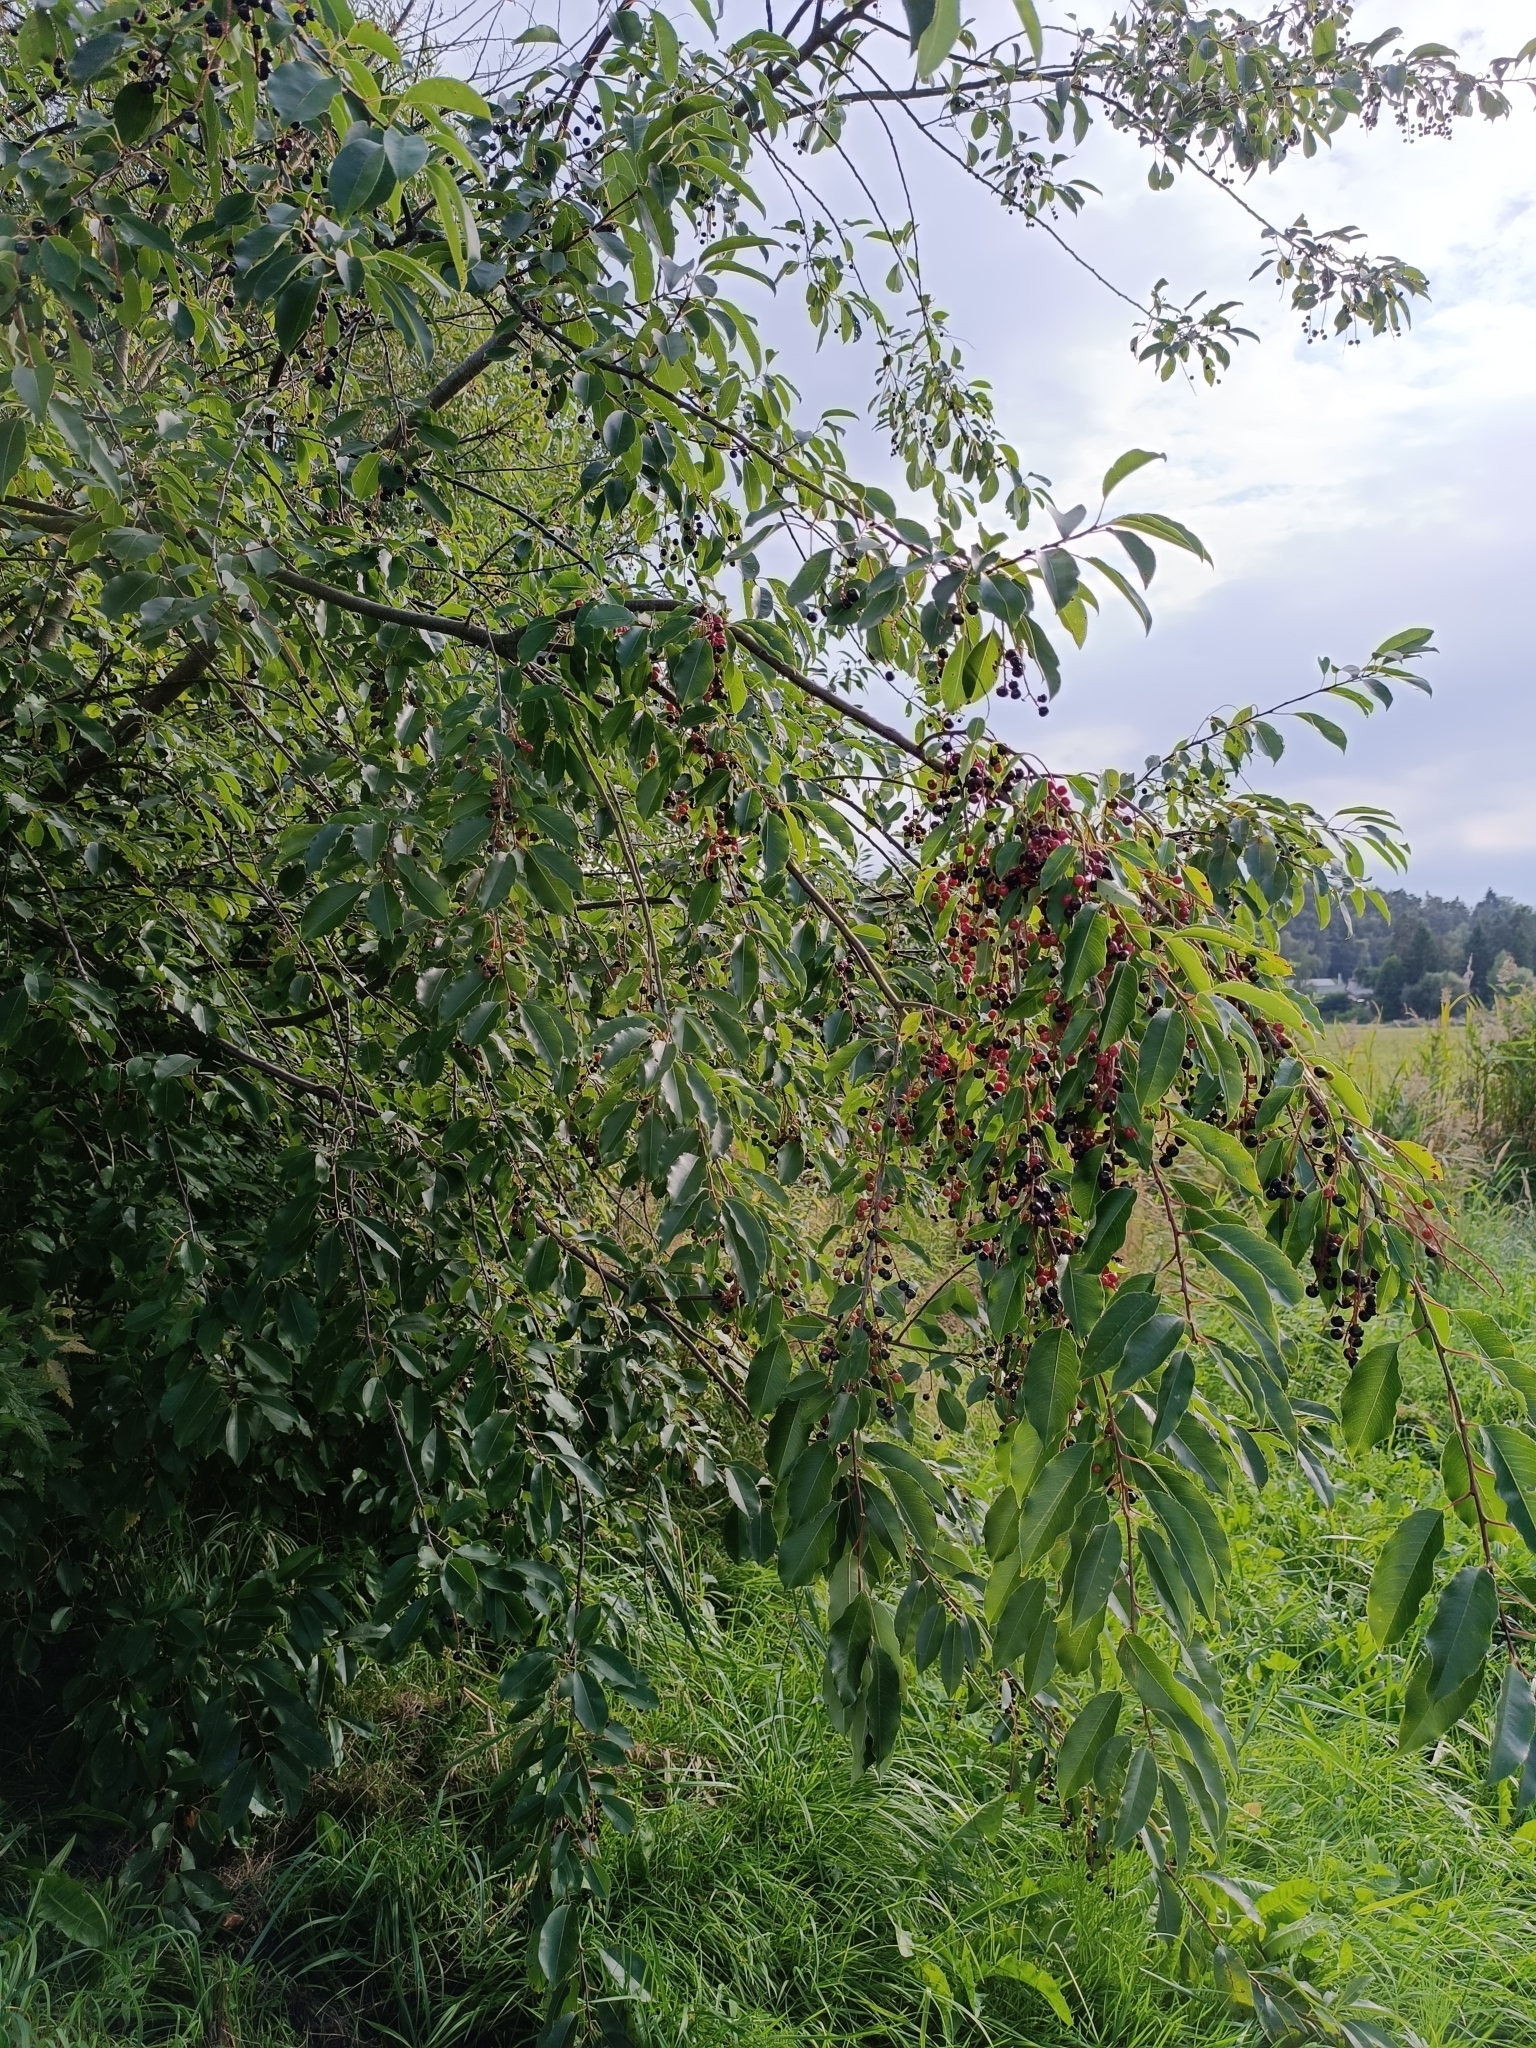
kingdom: Plantae
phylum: Tracheophyta
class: Magnoliopsida
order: Rosales
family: Rosaceae
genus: Prunus
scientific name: Prunus serotina
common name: Black cherry
